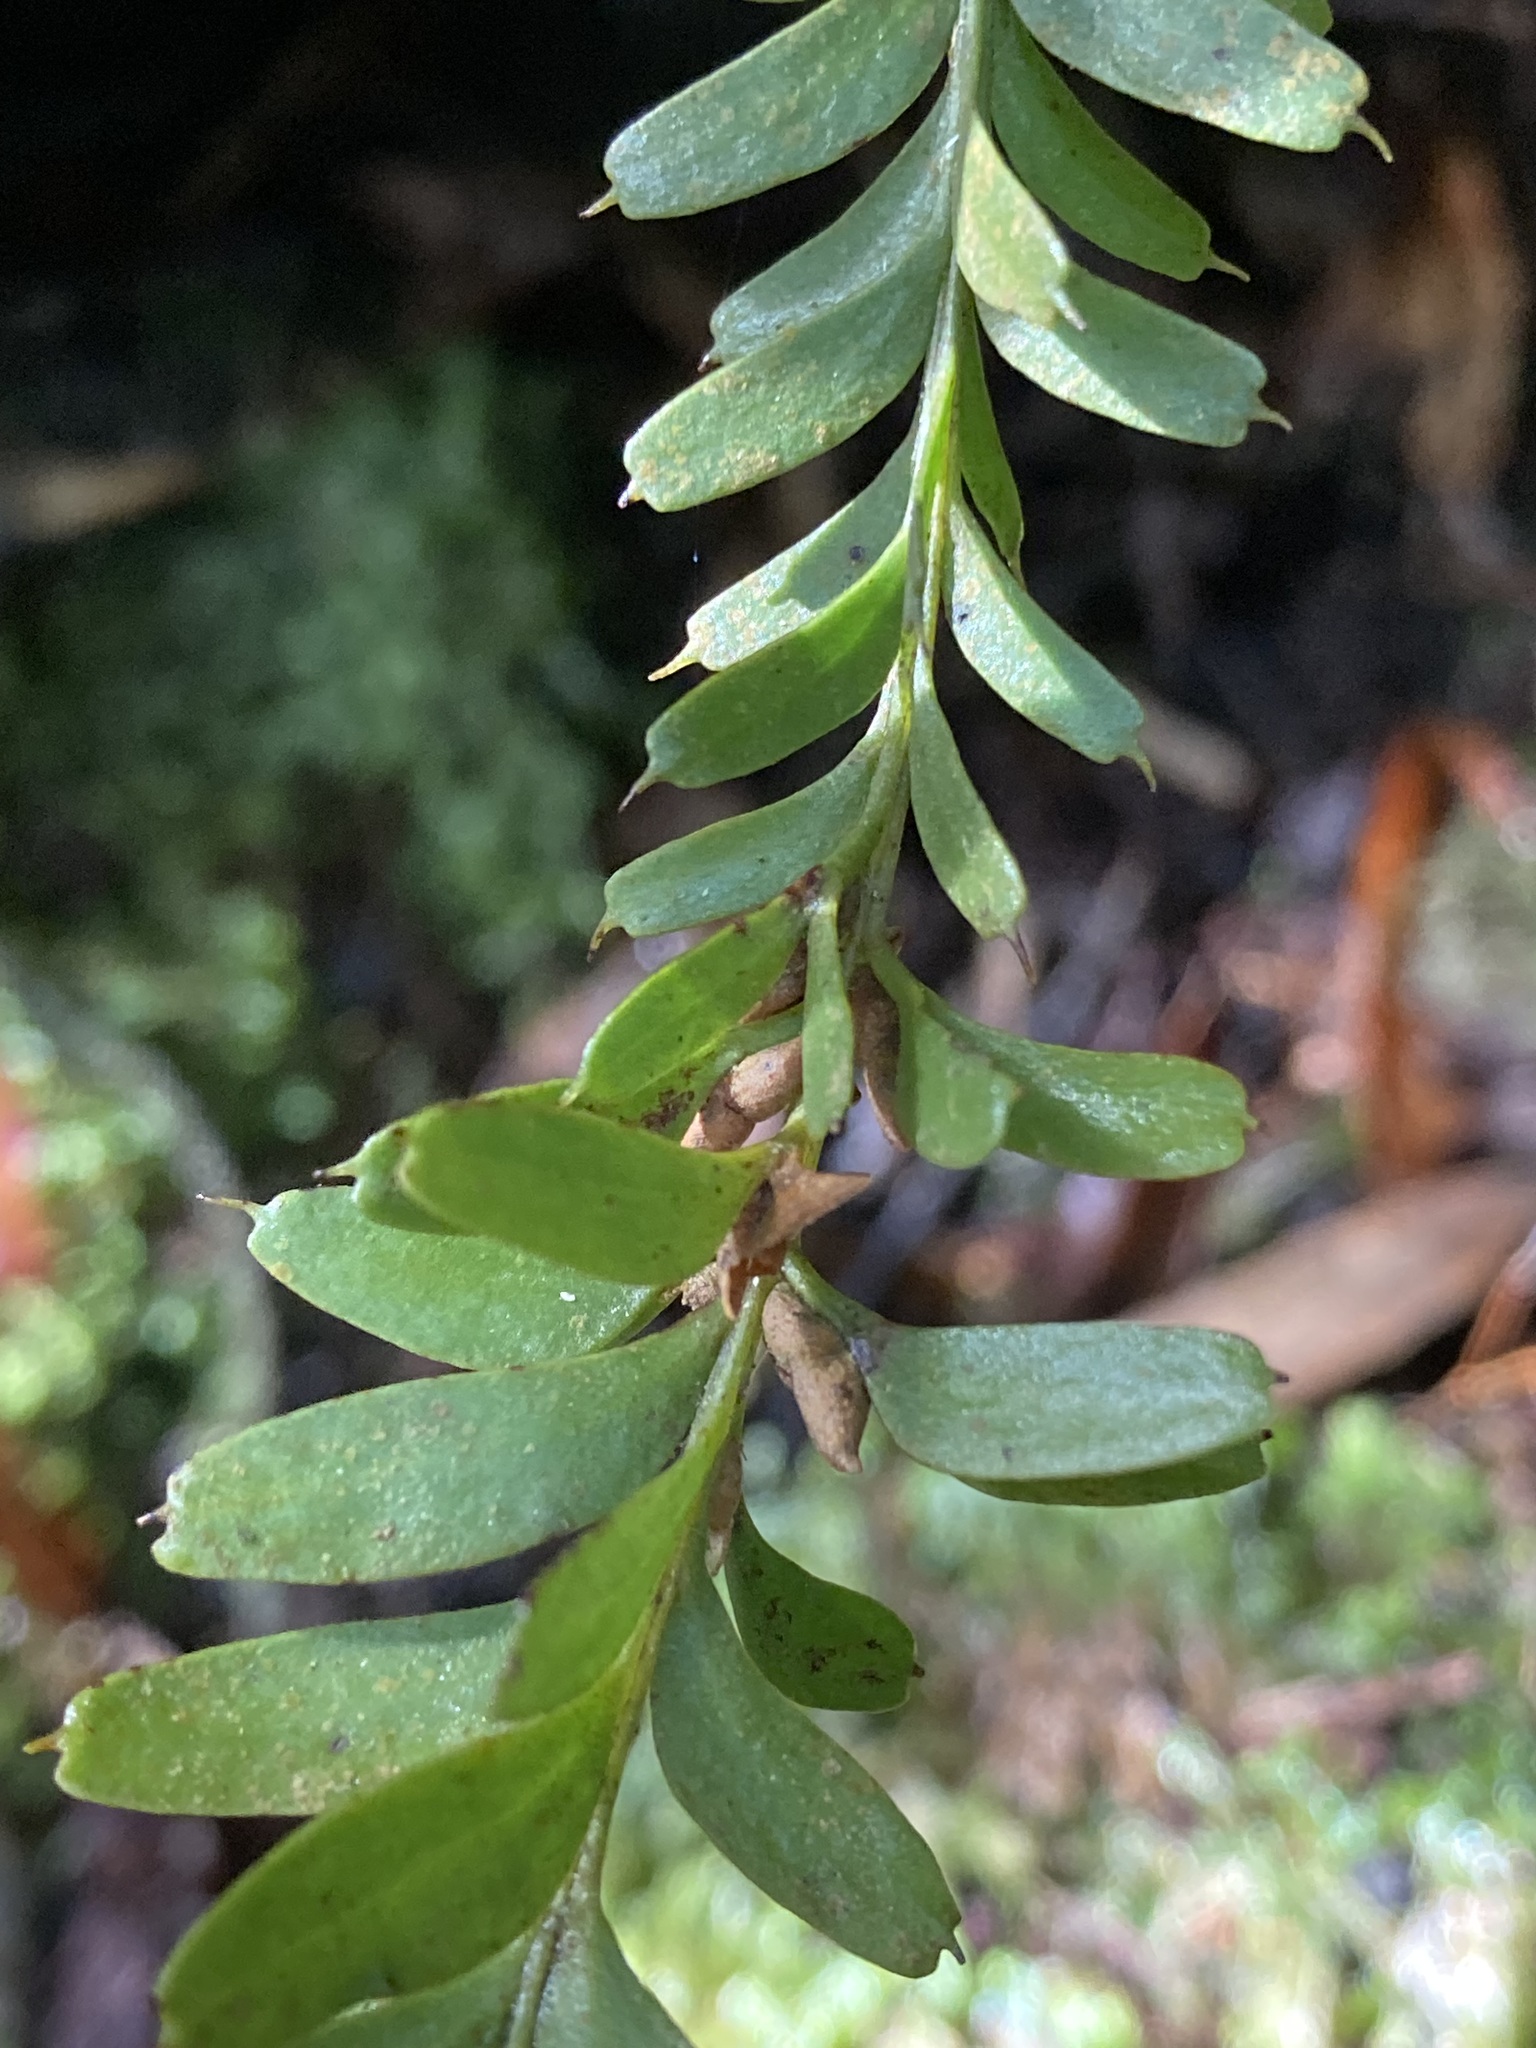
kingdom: Plantae
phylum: Tracheophyta
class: Polypodiopsida
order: Psilotales
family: Psilotaceae
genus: Tmesipteris
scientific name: Tmesipteris tannensis
